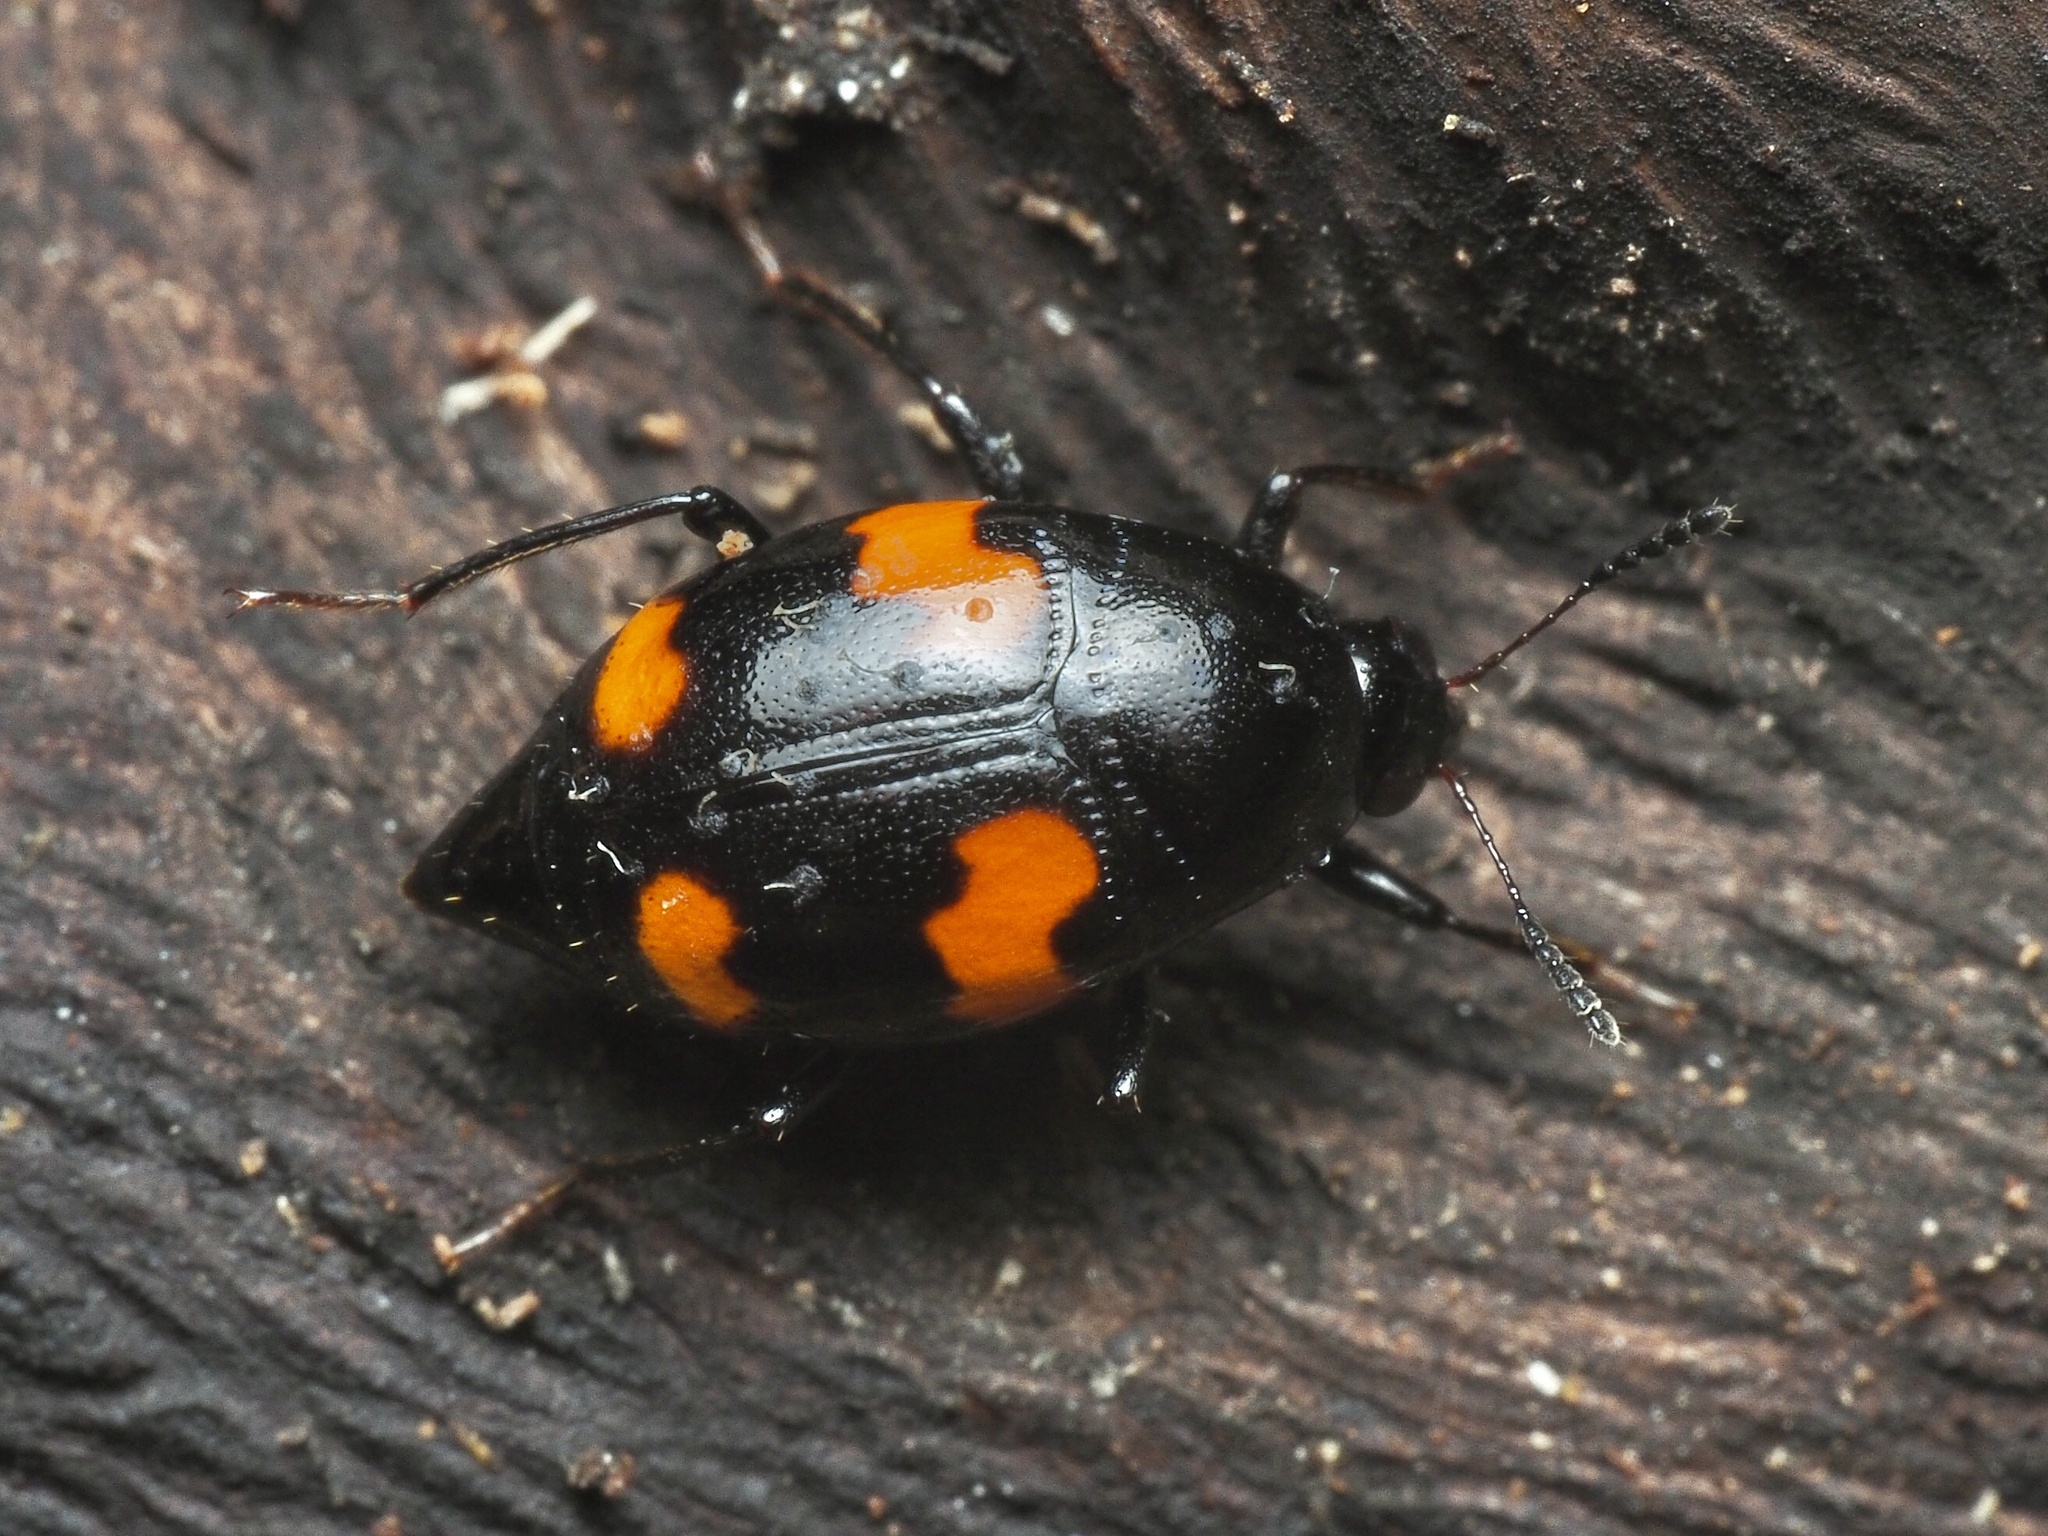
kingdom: Animalia
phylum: Arthropoda
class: Insecta
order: Coleoptera
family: Staphylinidae
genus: Scaphidium
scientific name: Scaphidium quadrimaculatum
